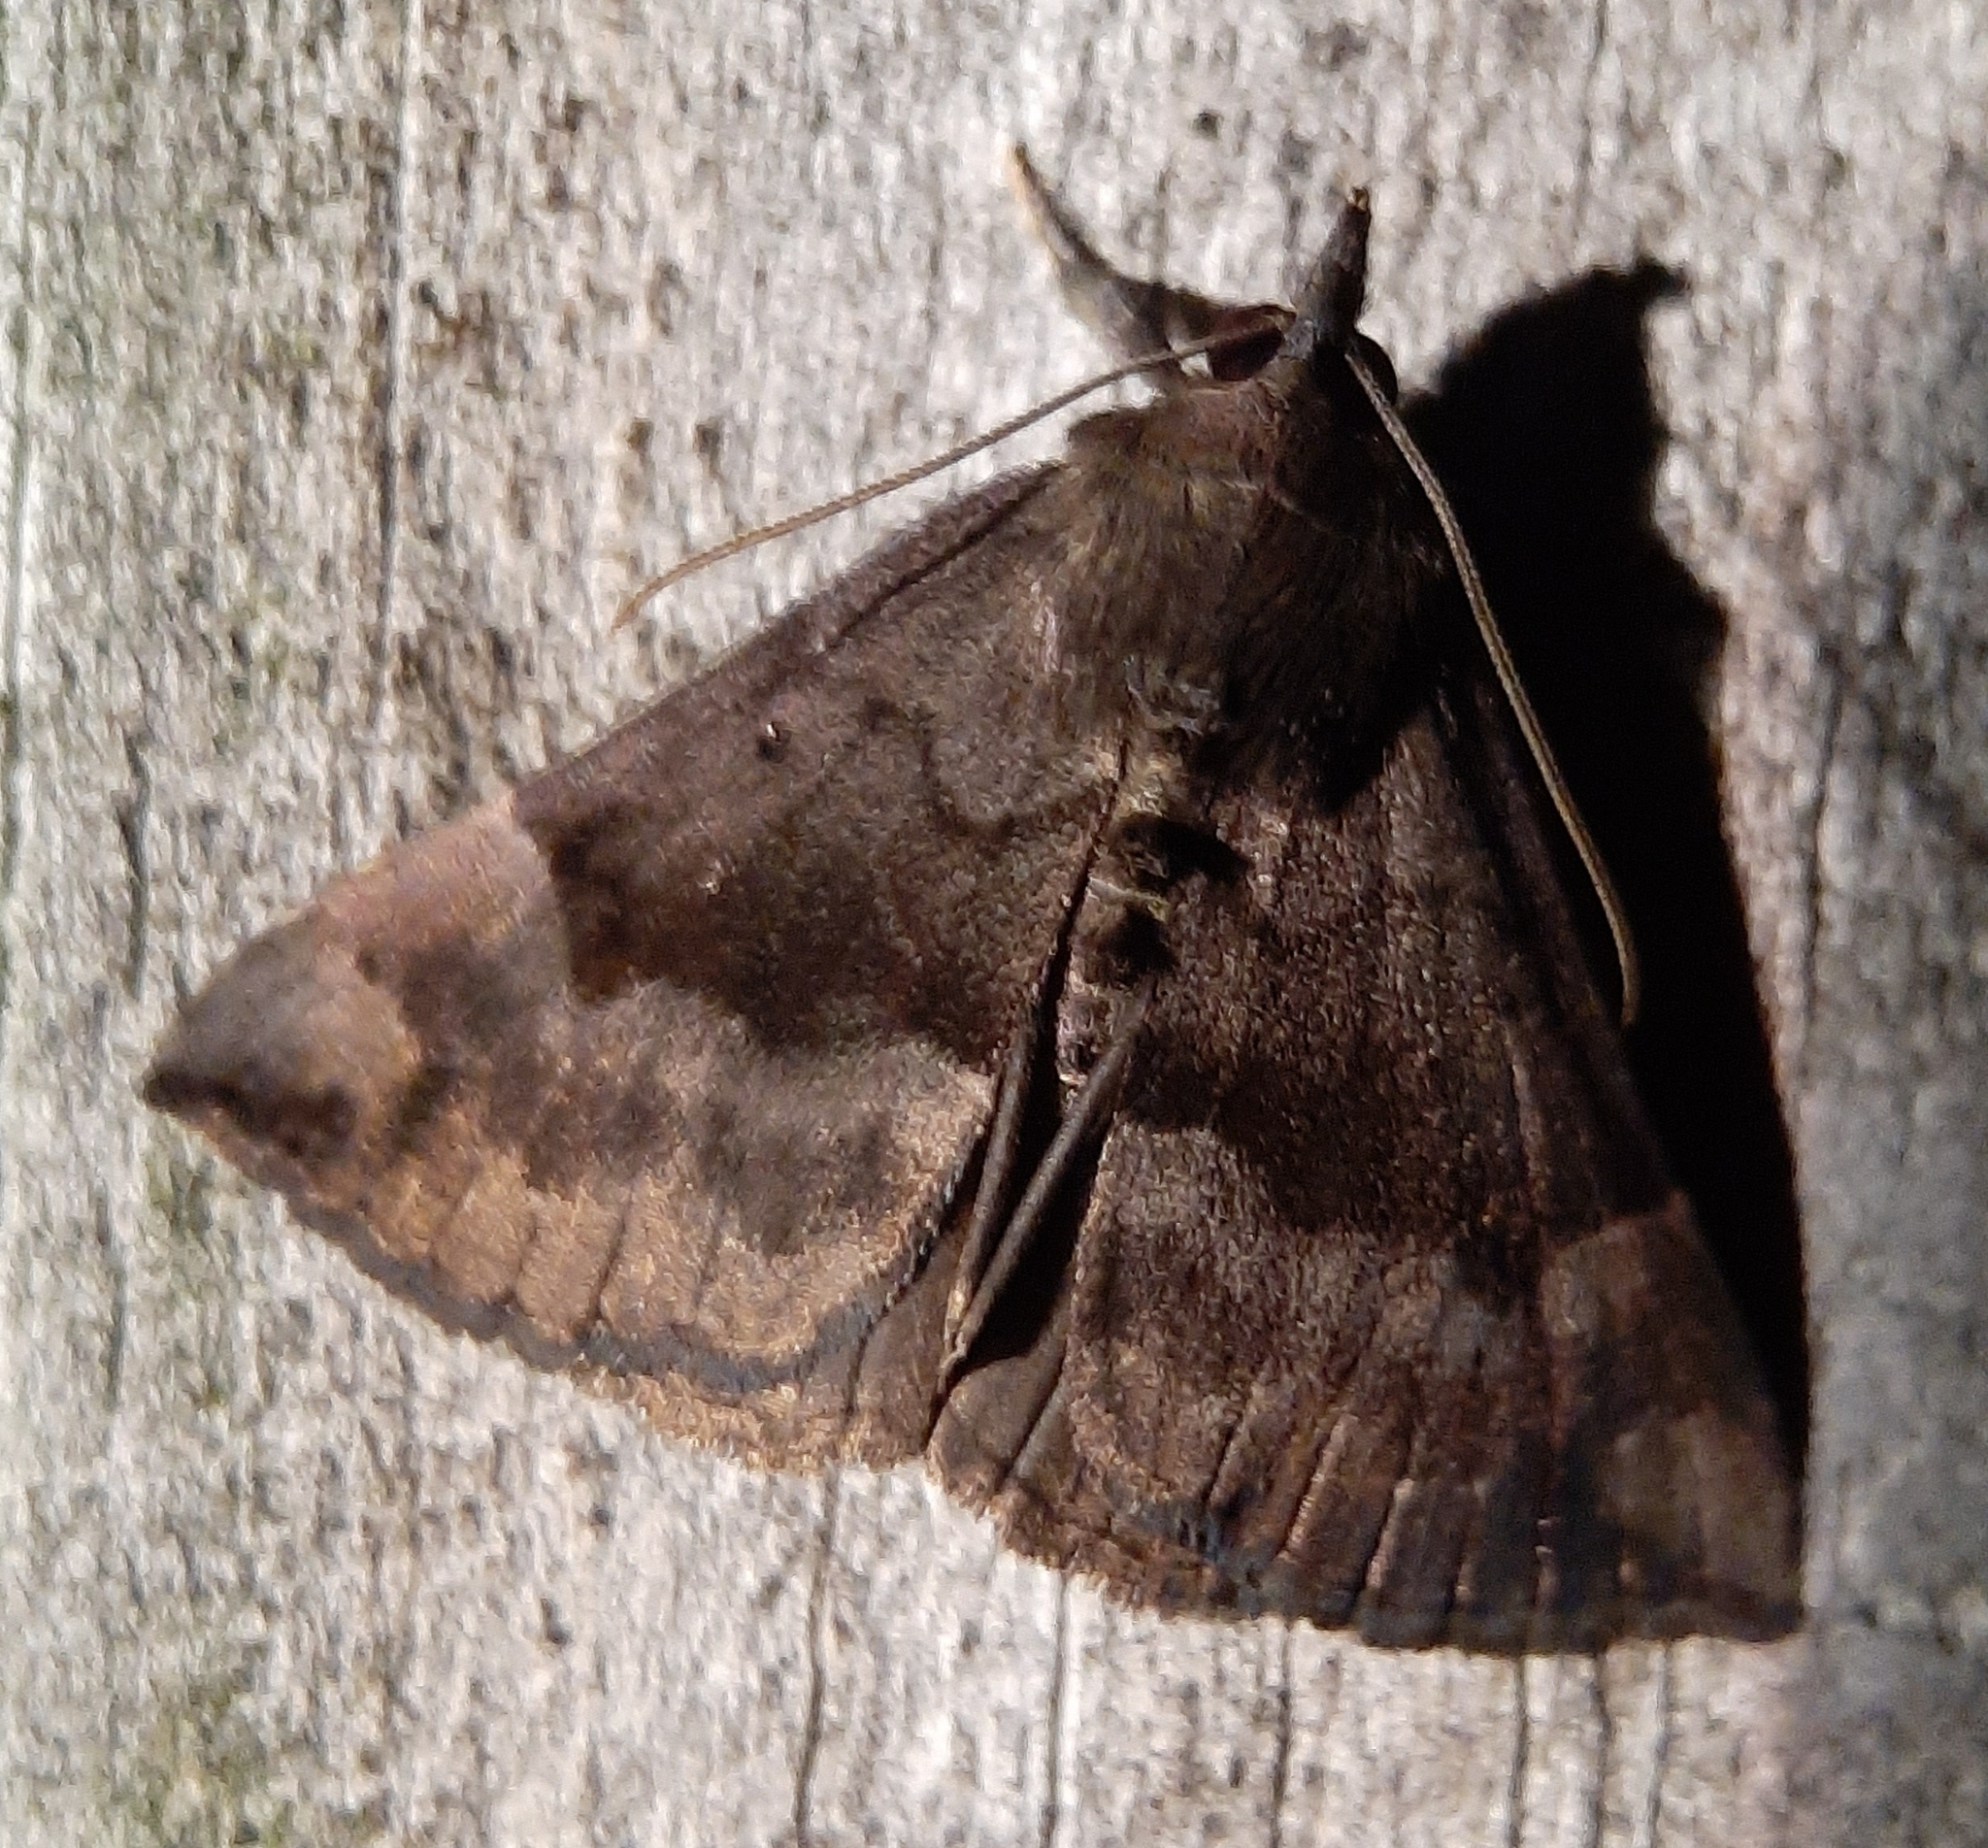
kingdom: Animalia
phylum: Arthropoda
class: Insecta
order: Lepidoptera
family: Erebidae
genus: Hypena
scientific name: Hypena madefactalis
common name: Gray-edged snout
